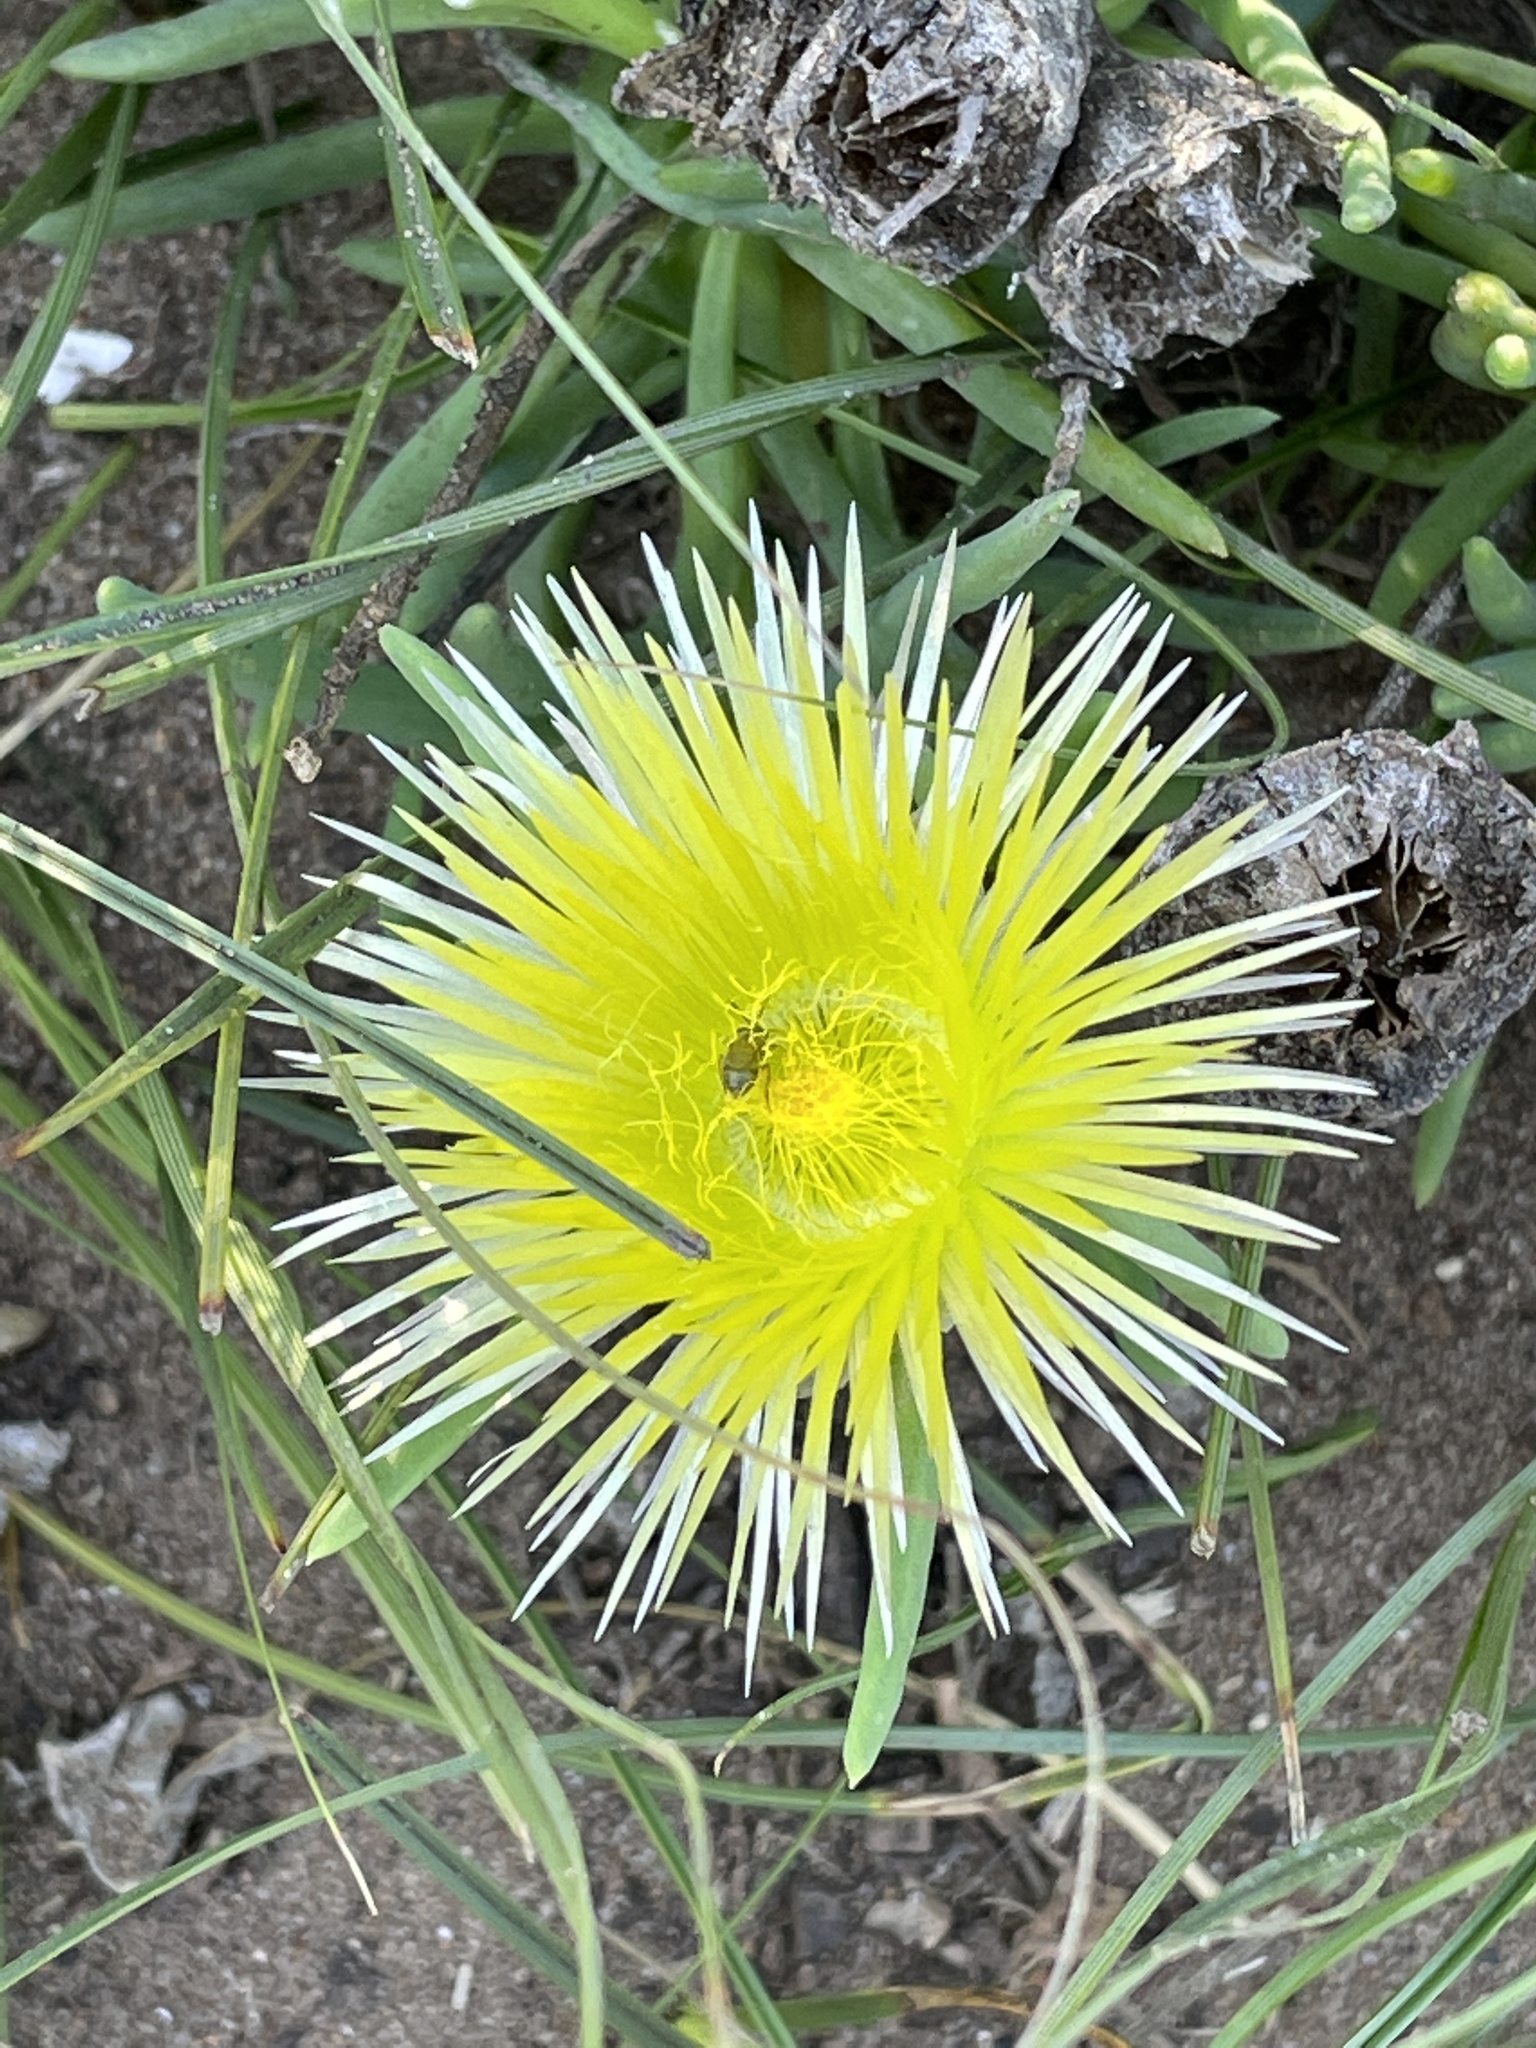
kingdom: Plantae
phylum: Tracheophyta
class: Magnoliopsida
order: Caryophyllales
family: Aizoaceae
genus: Conicosia
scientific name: Conicosia pugioniformis
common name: Narrow-leaved iceplant
